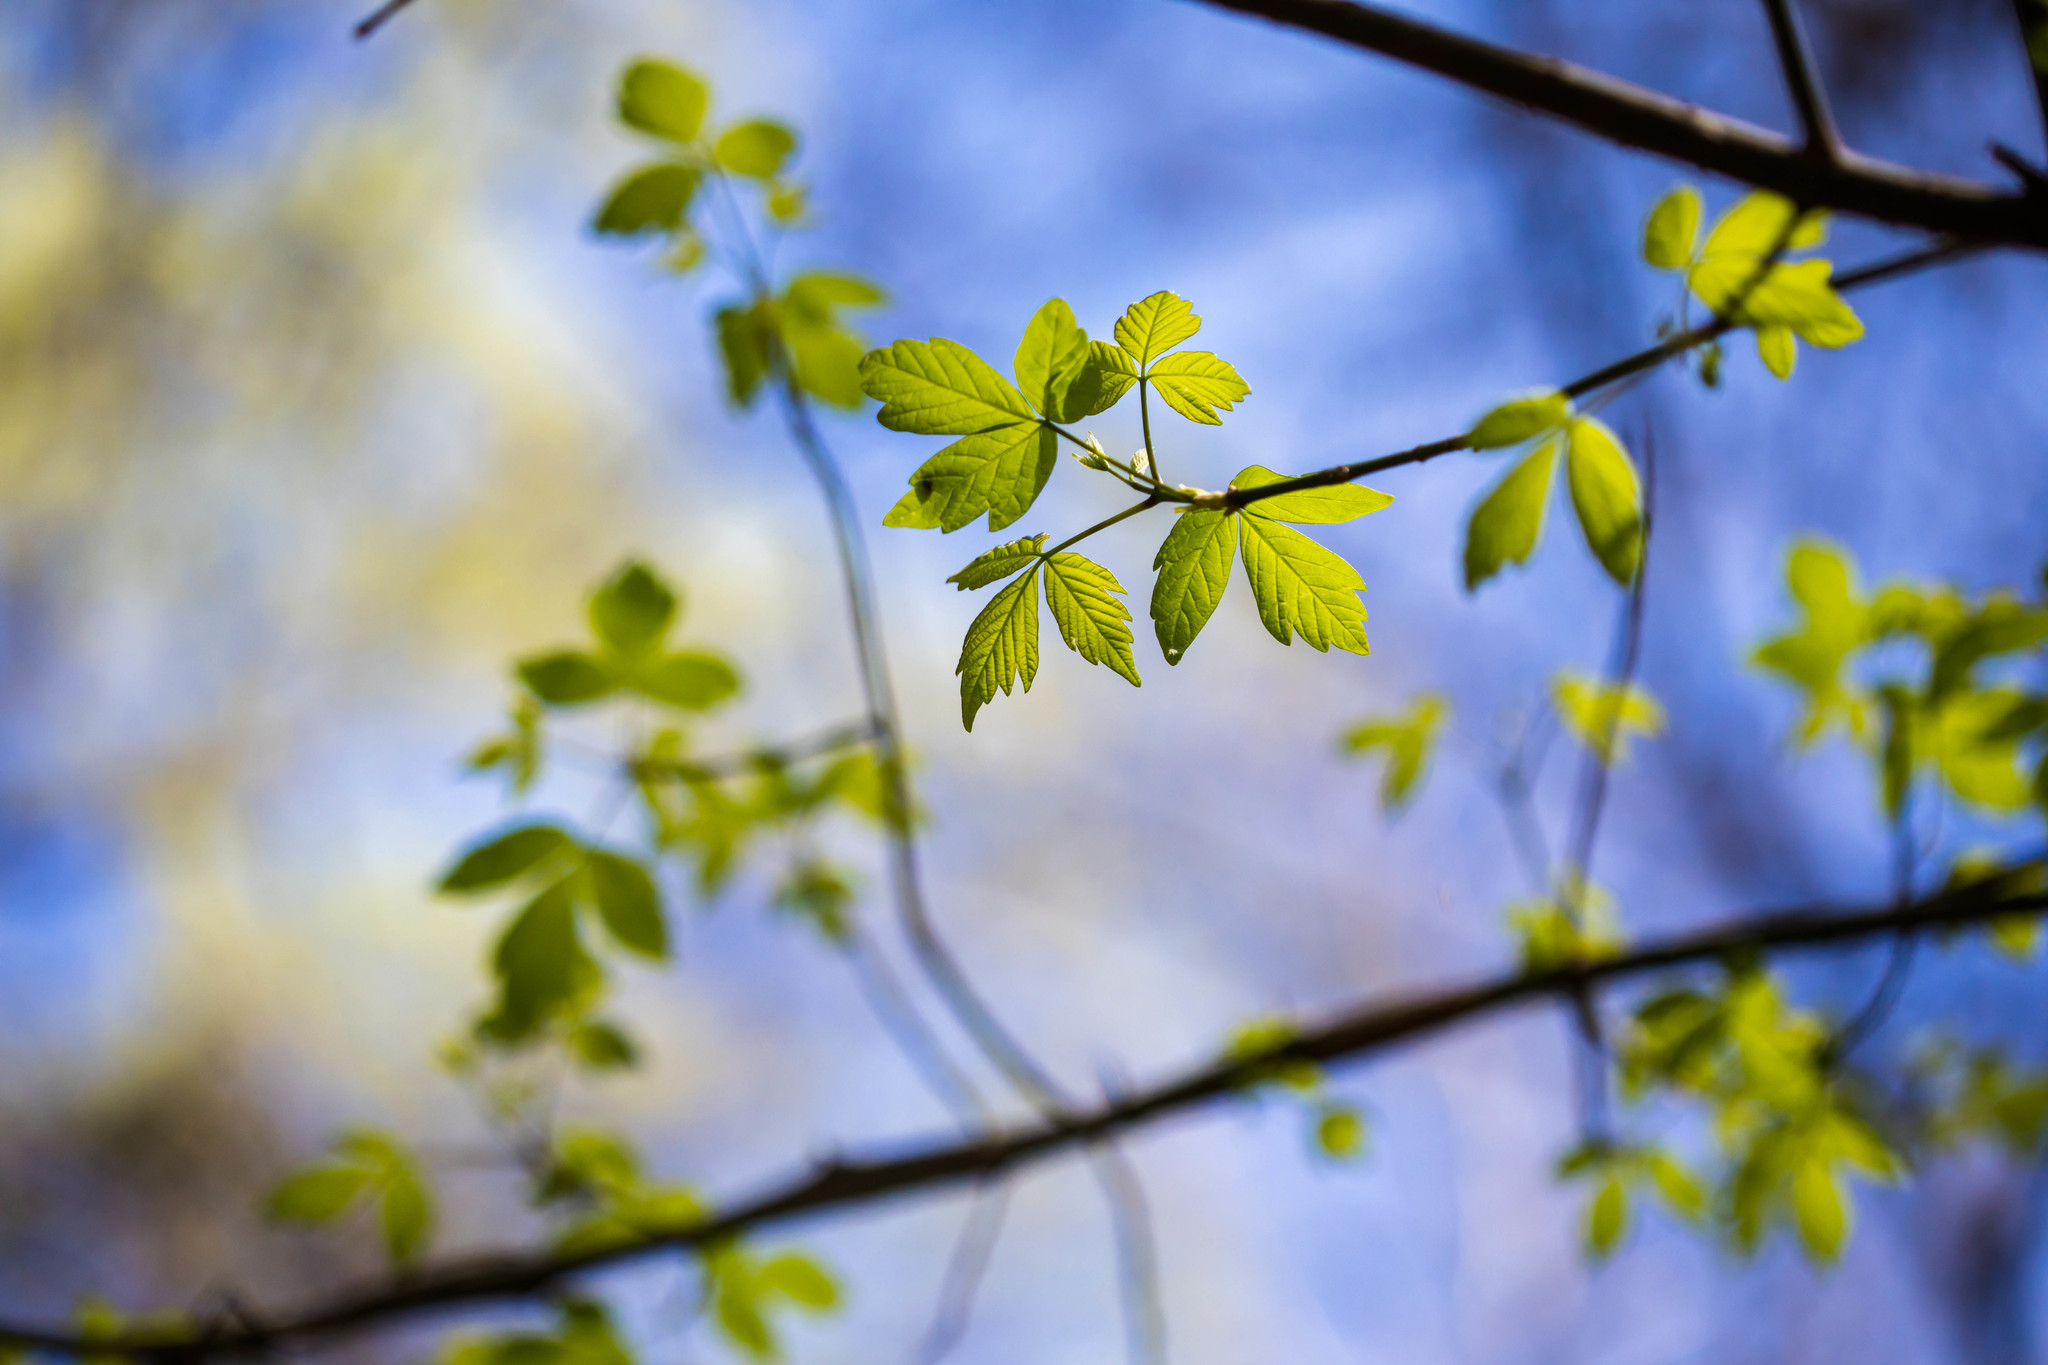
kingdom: Plantae
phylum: Tracheophyta
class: Magnoliopsida
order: Sapindales
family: Sapindaceae
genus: Acer
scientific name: Acer negundo
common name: Ashleaf maple
